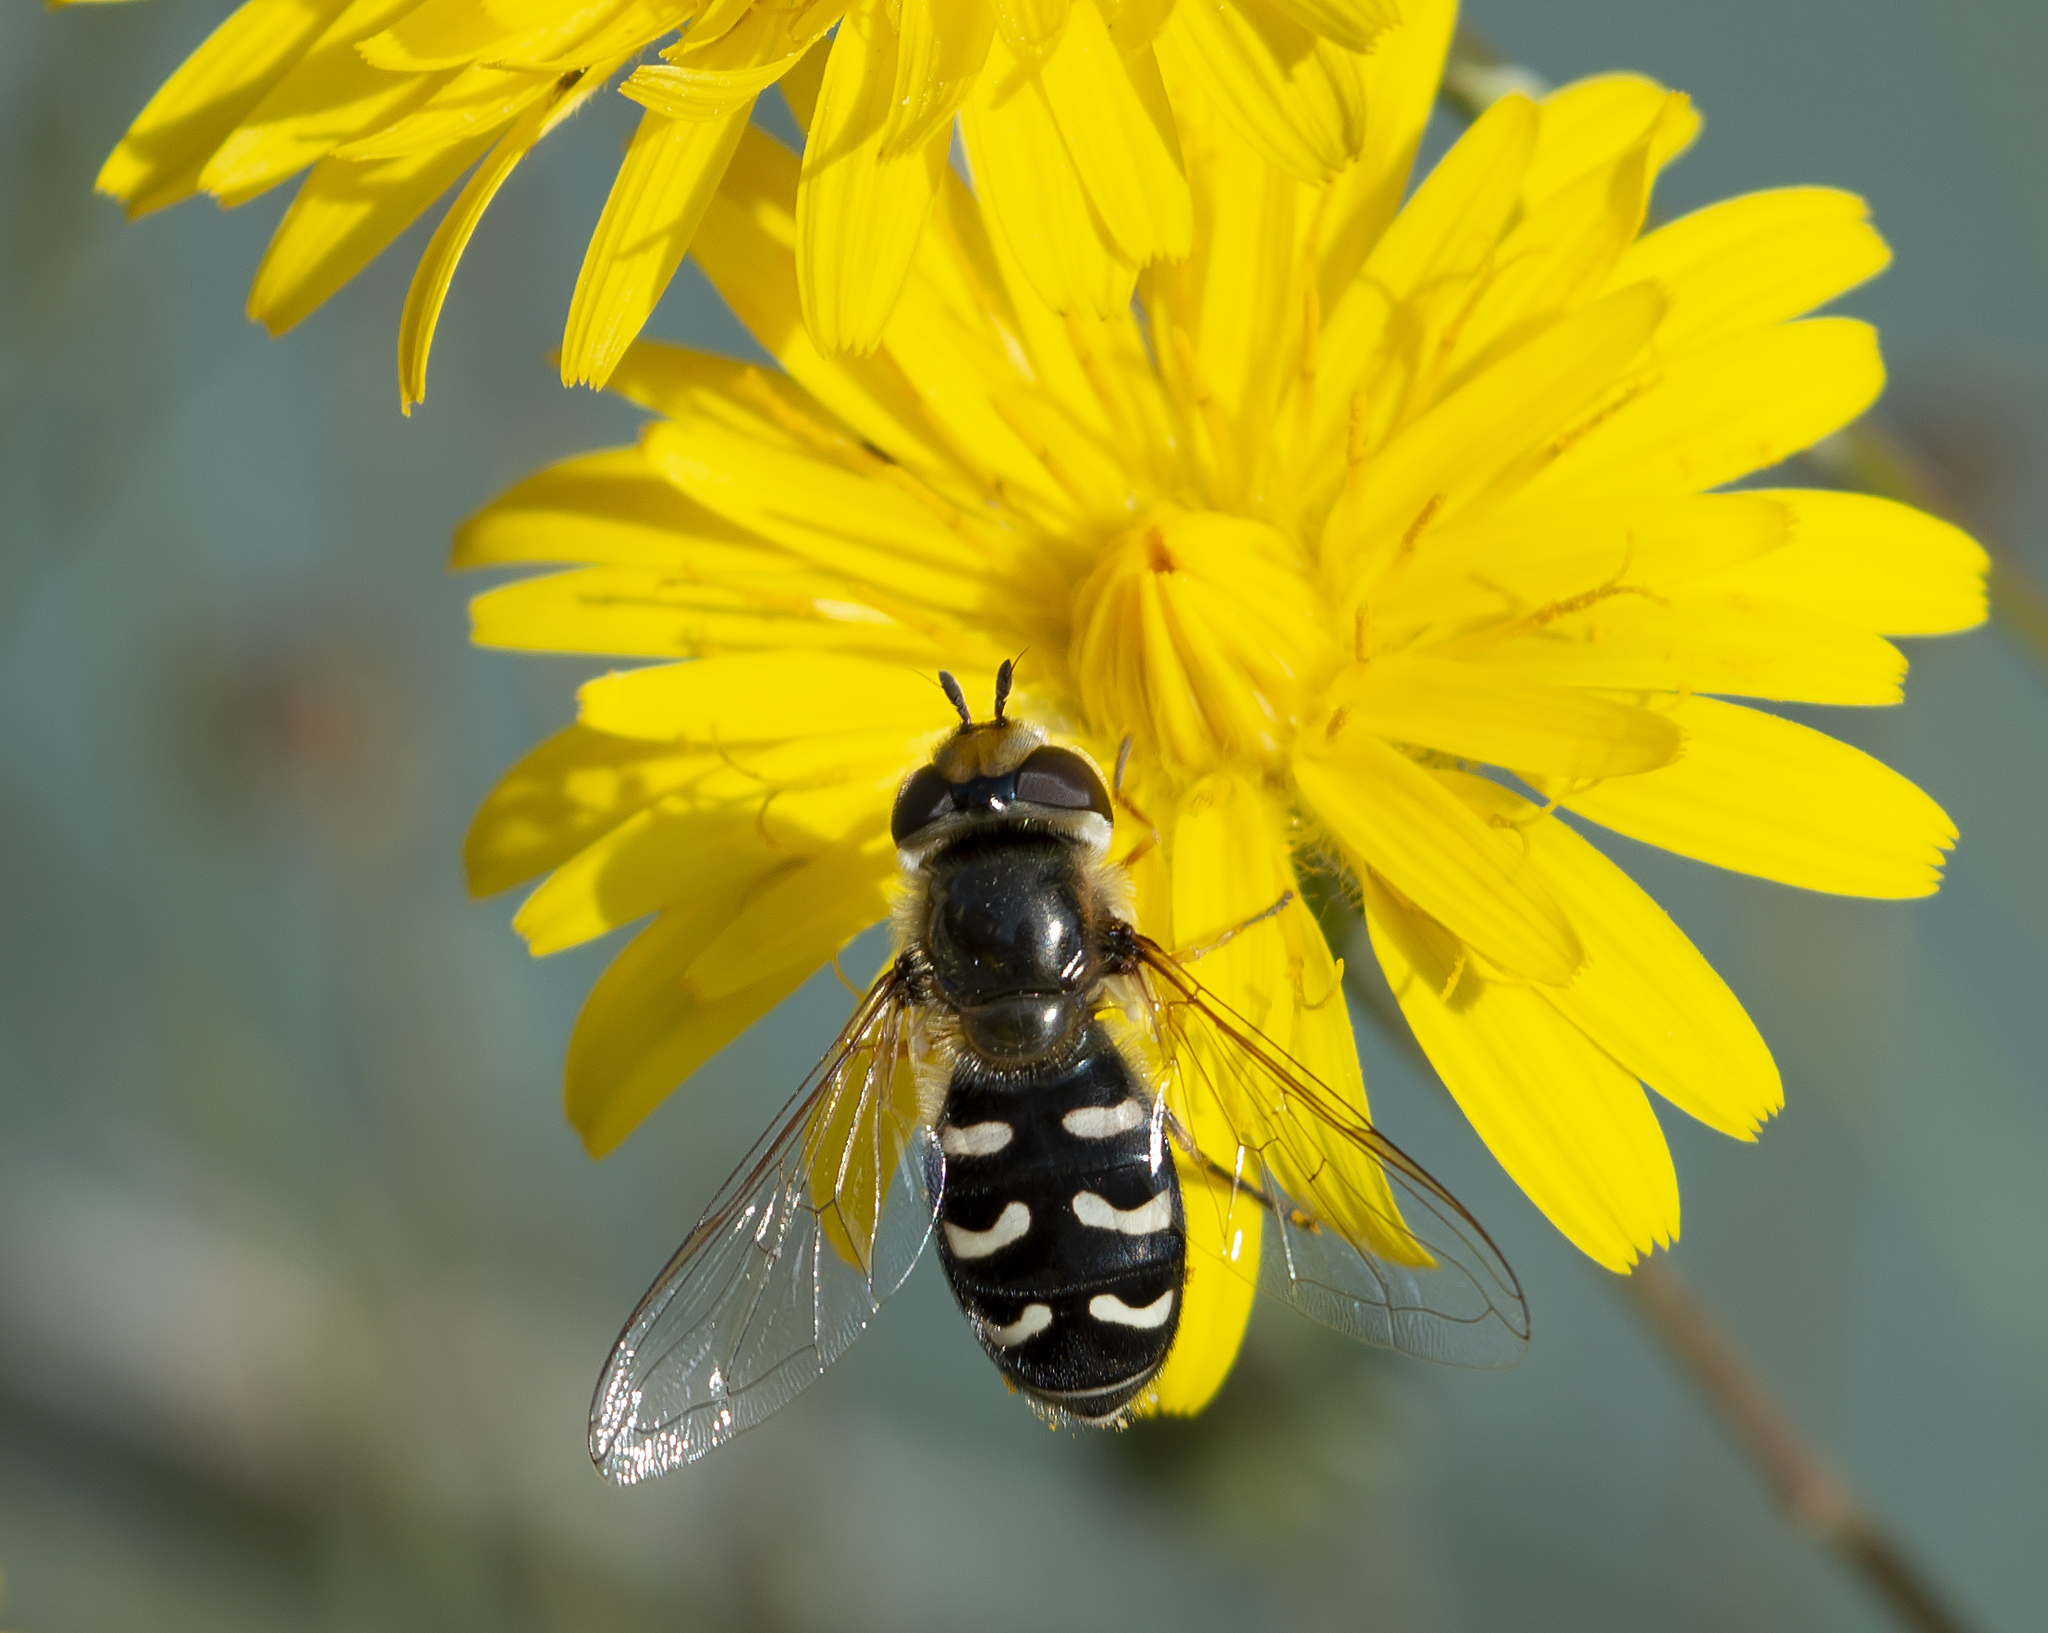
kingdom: Animalia
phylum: Arthropoda
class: Insecta
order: Diptera
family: Syrphidae
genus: Scaeva
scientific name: Scaeva pyrastri
